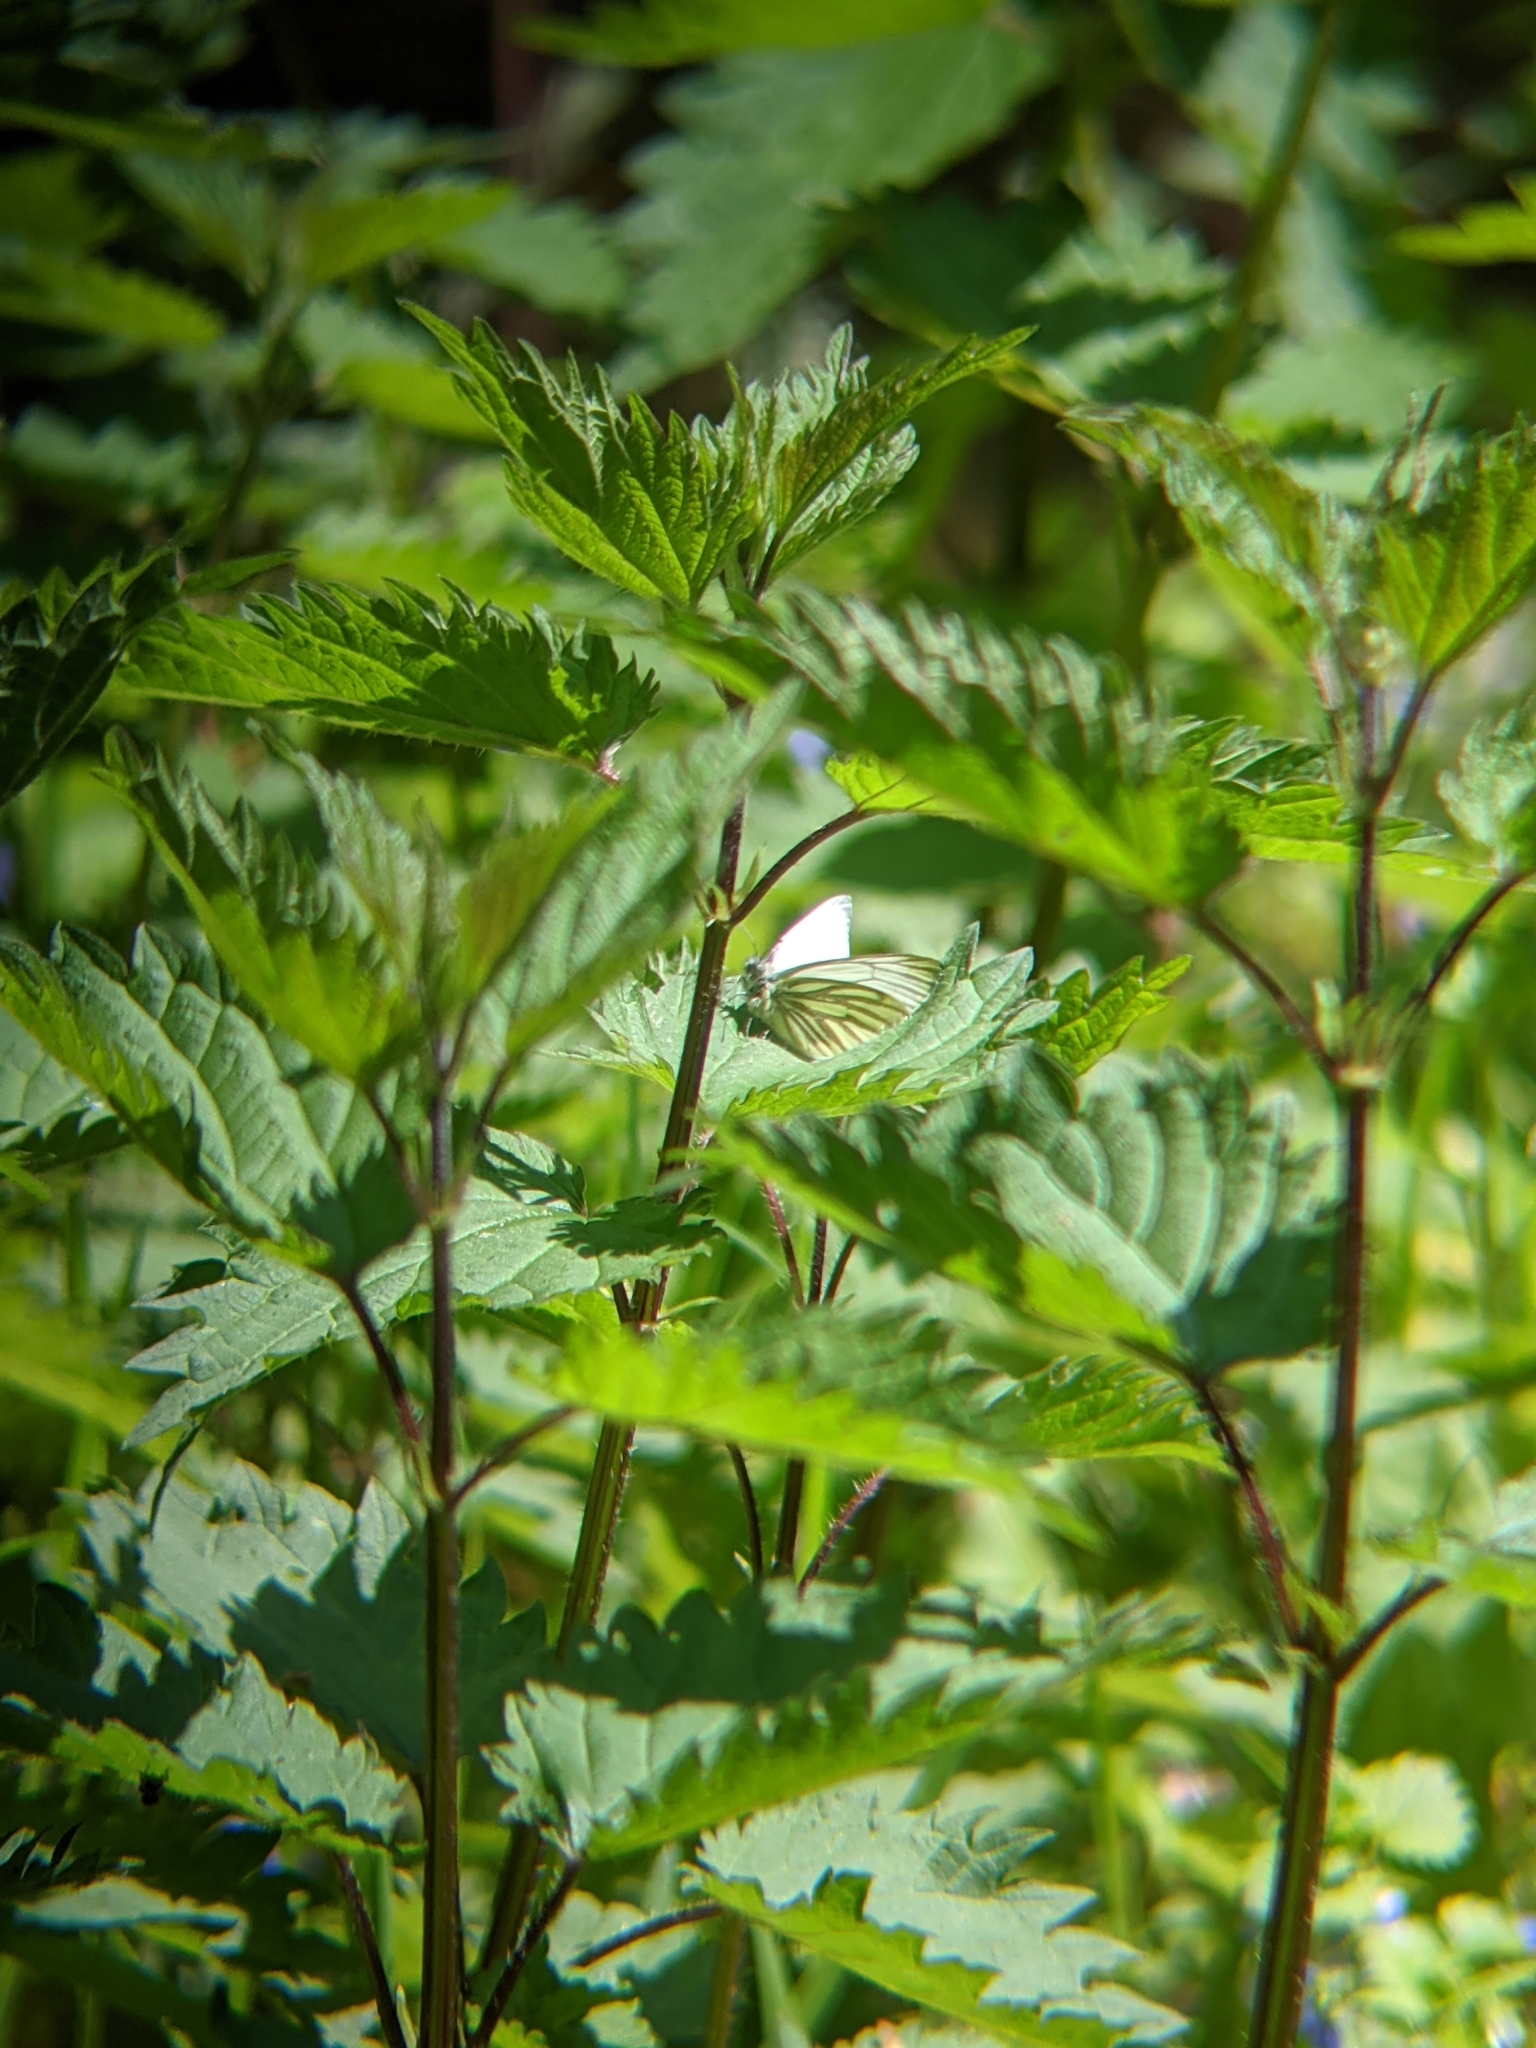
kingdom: Animalia
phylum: Arthropoda
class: Insecta
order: Lepidoptera
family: Pieridae
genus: Pieris
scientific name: Pieris napi
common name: Green-veined white
